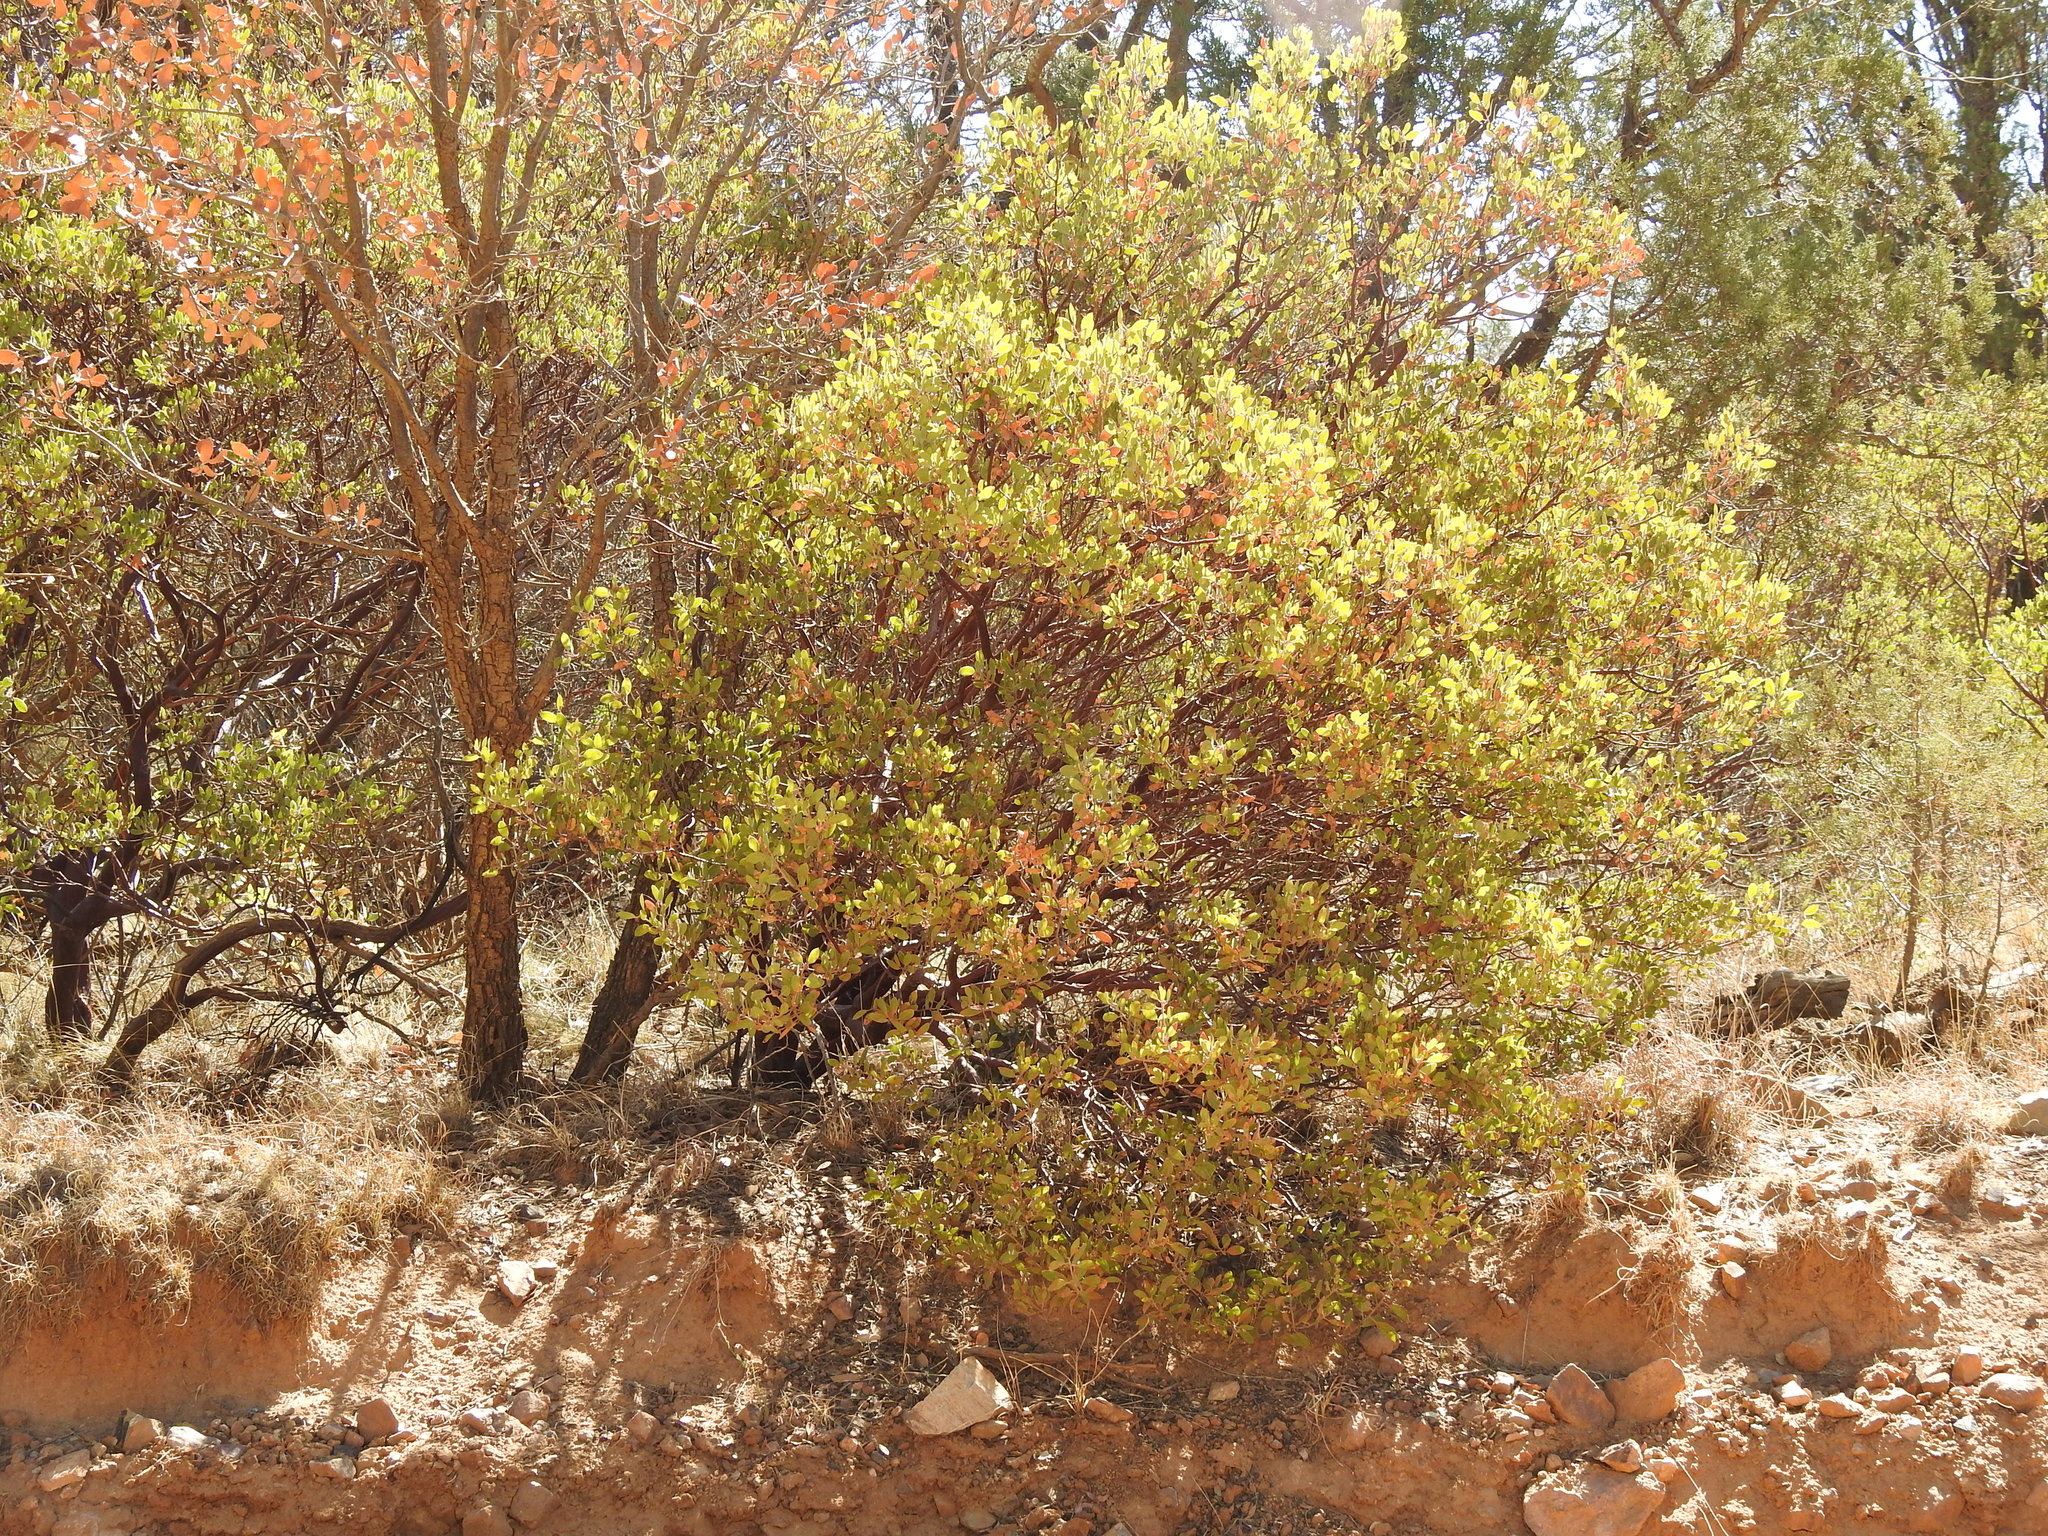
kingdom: Plantae
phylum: Tracheophyta
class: Magnoliopsida
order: Ericales
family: Ericaceae
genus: Arctostaphylos
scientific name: Arctostaphylos pungens
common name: Mexican manzanita
